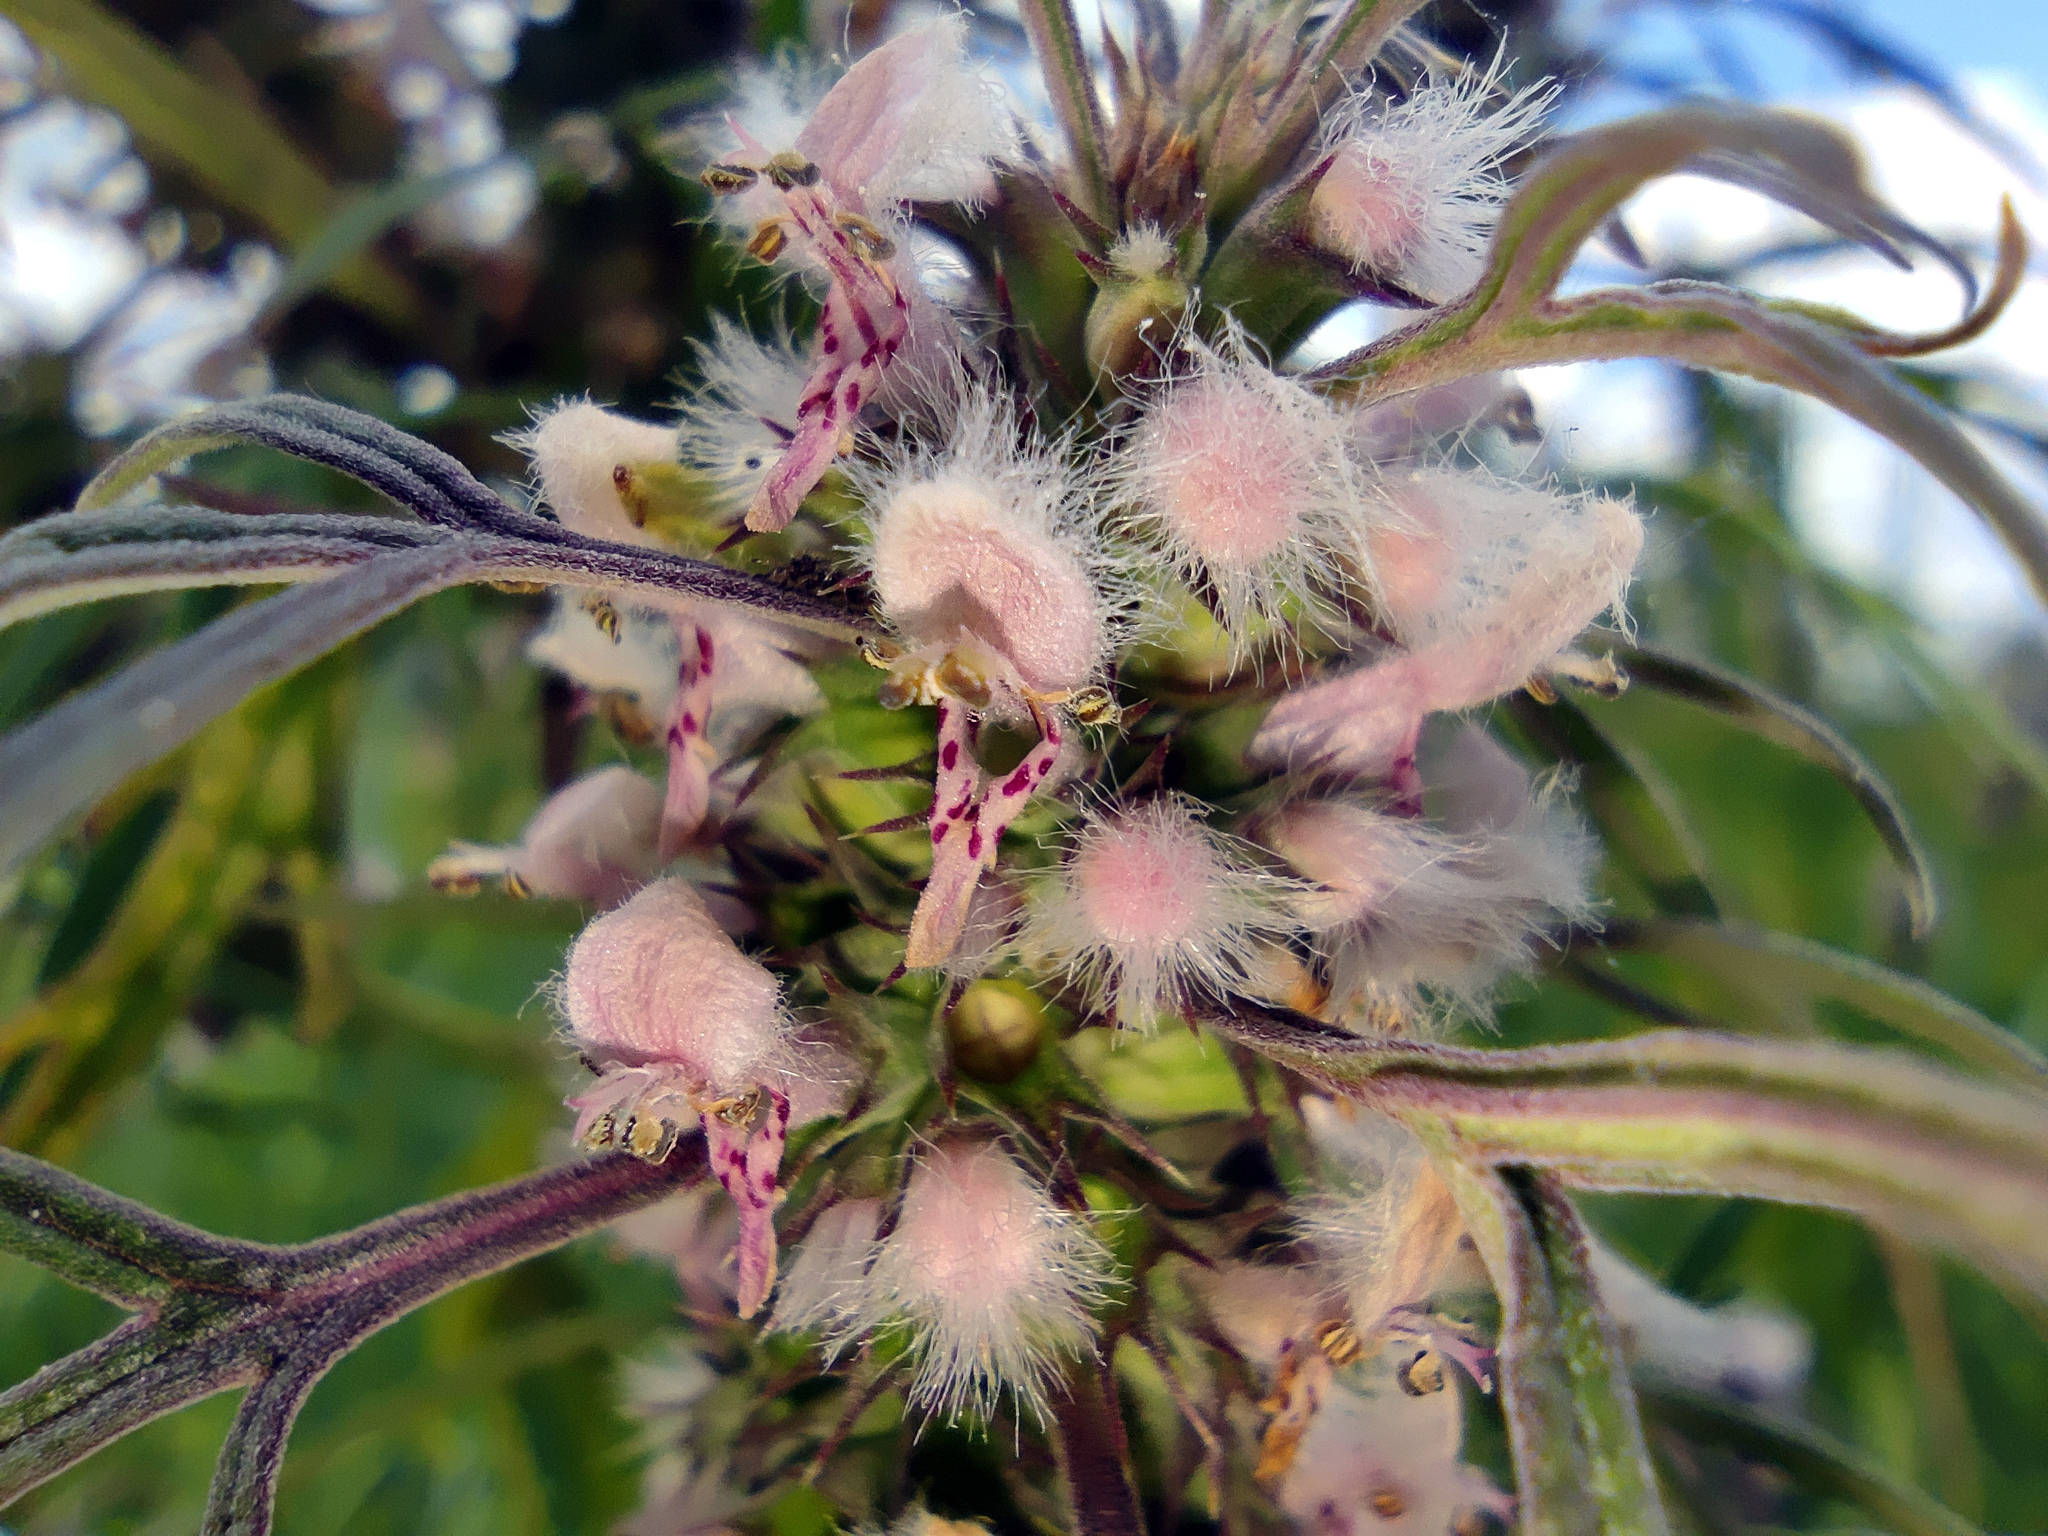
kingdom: Plantae
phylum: Tracheophyta
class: Magnoliopsida
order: Lamiales
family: Lamiaceae
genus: Leonurus
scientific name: Leonurus glaucescens
